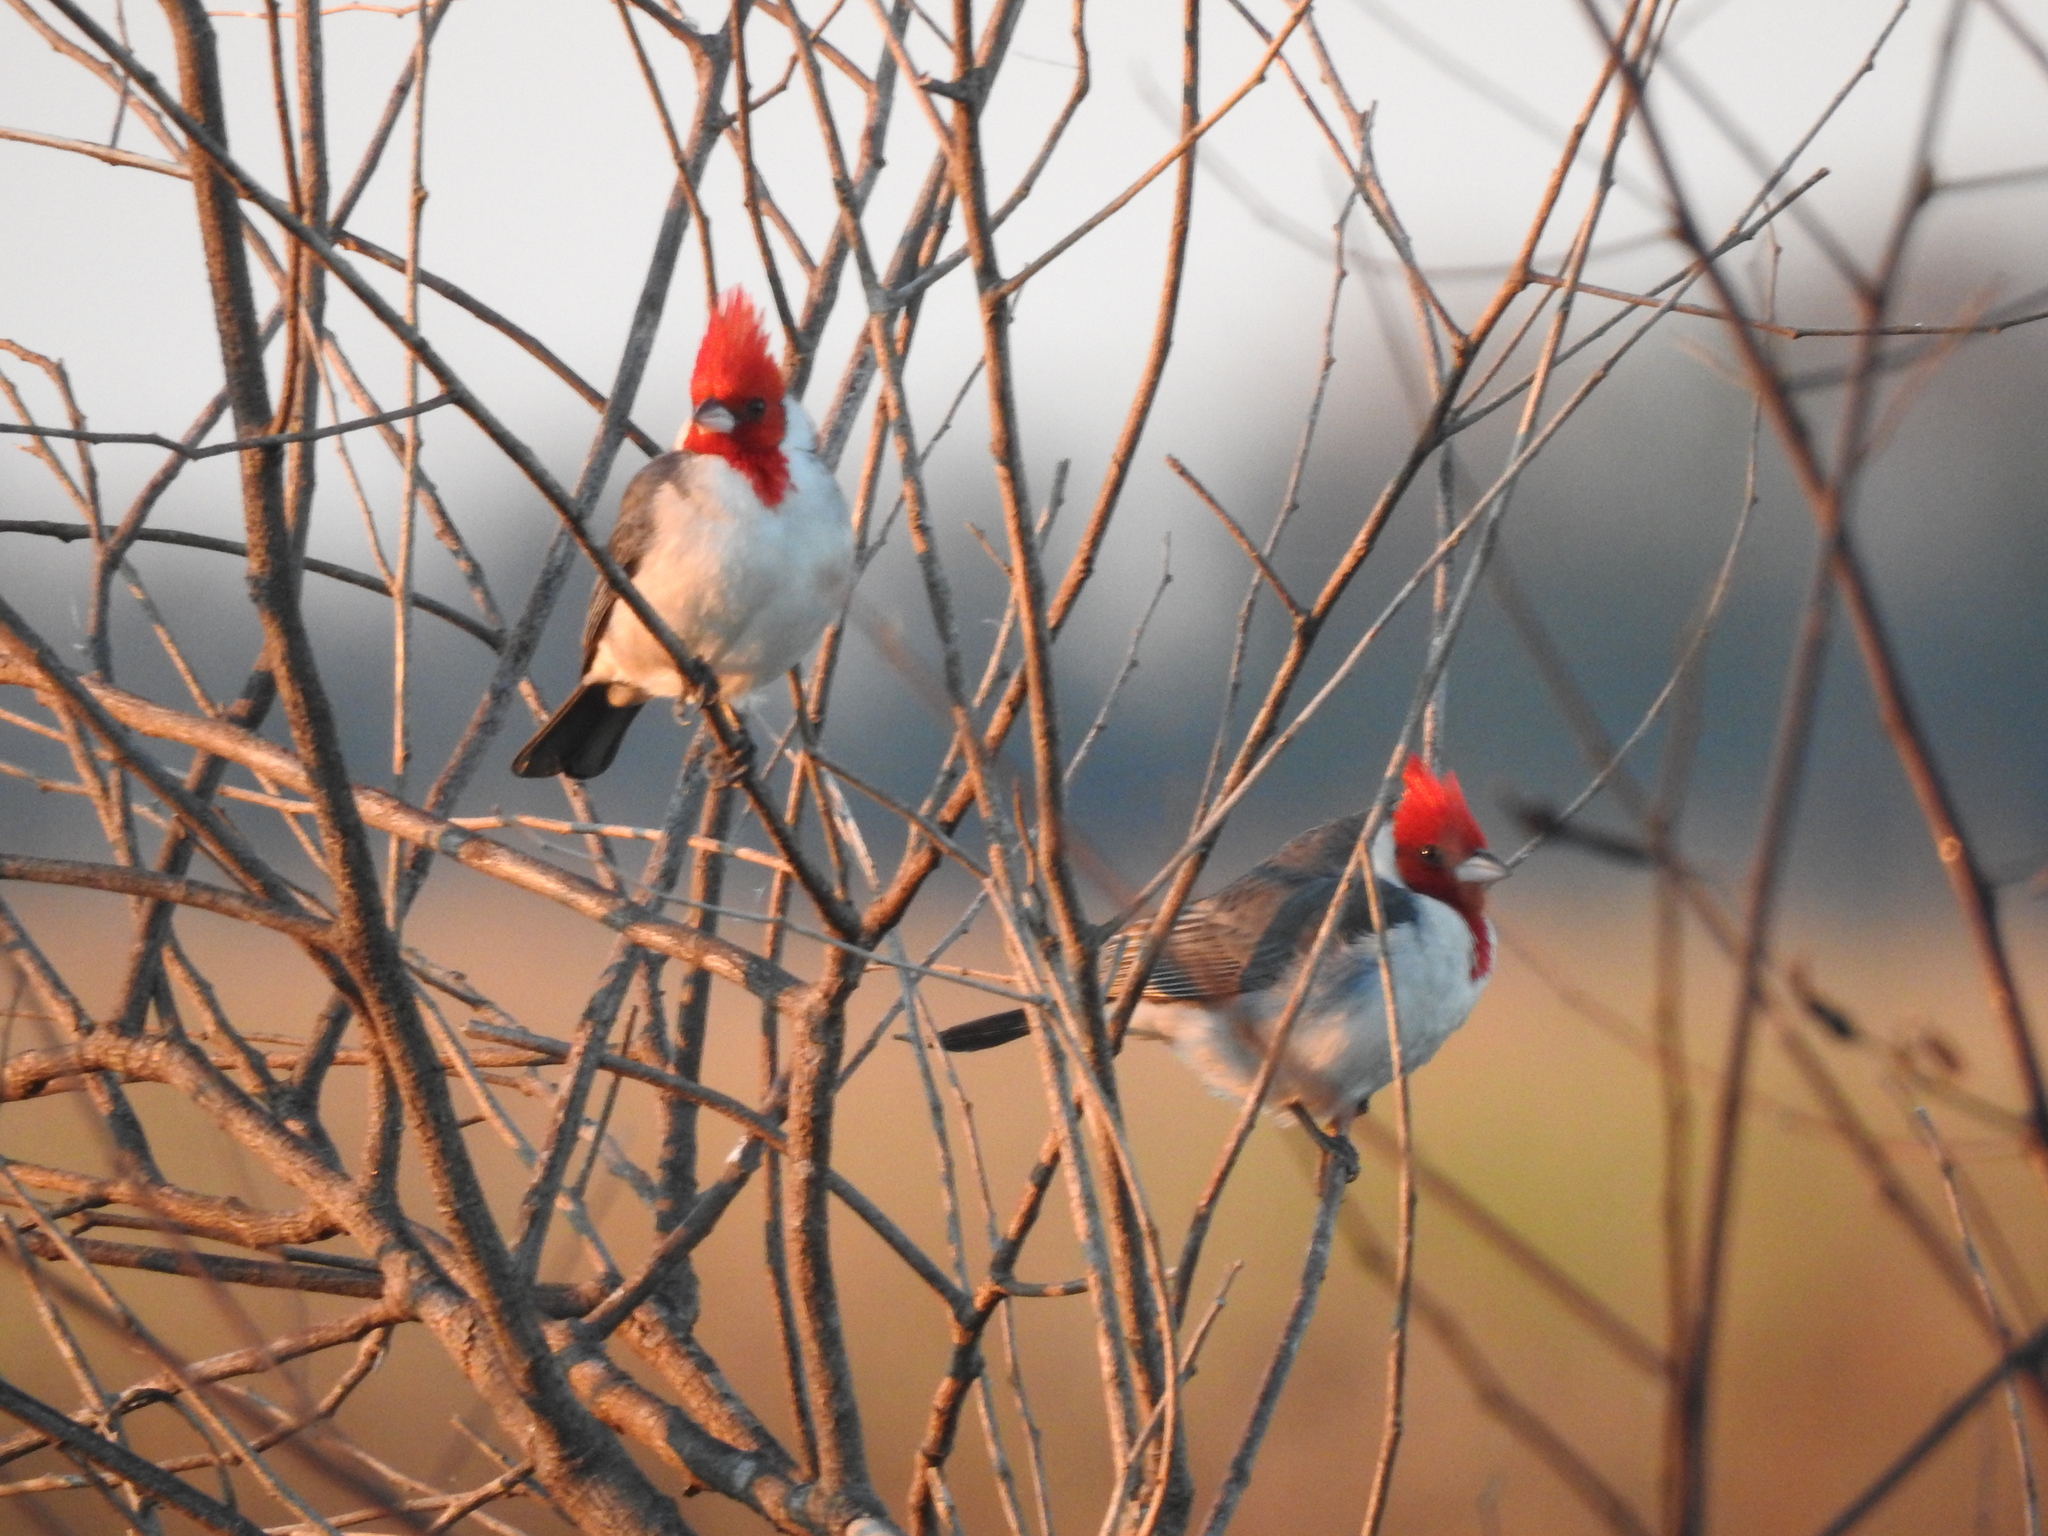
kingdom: Animalia
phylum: Chordata
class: Aves
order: Passeriformes
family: Thraupidae
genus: Paroaria
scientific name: Paroaria coronata
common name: Red-crested cardinal
